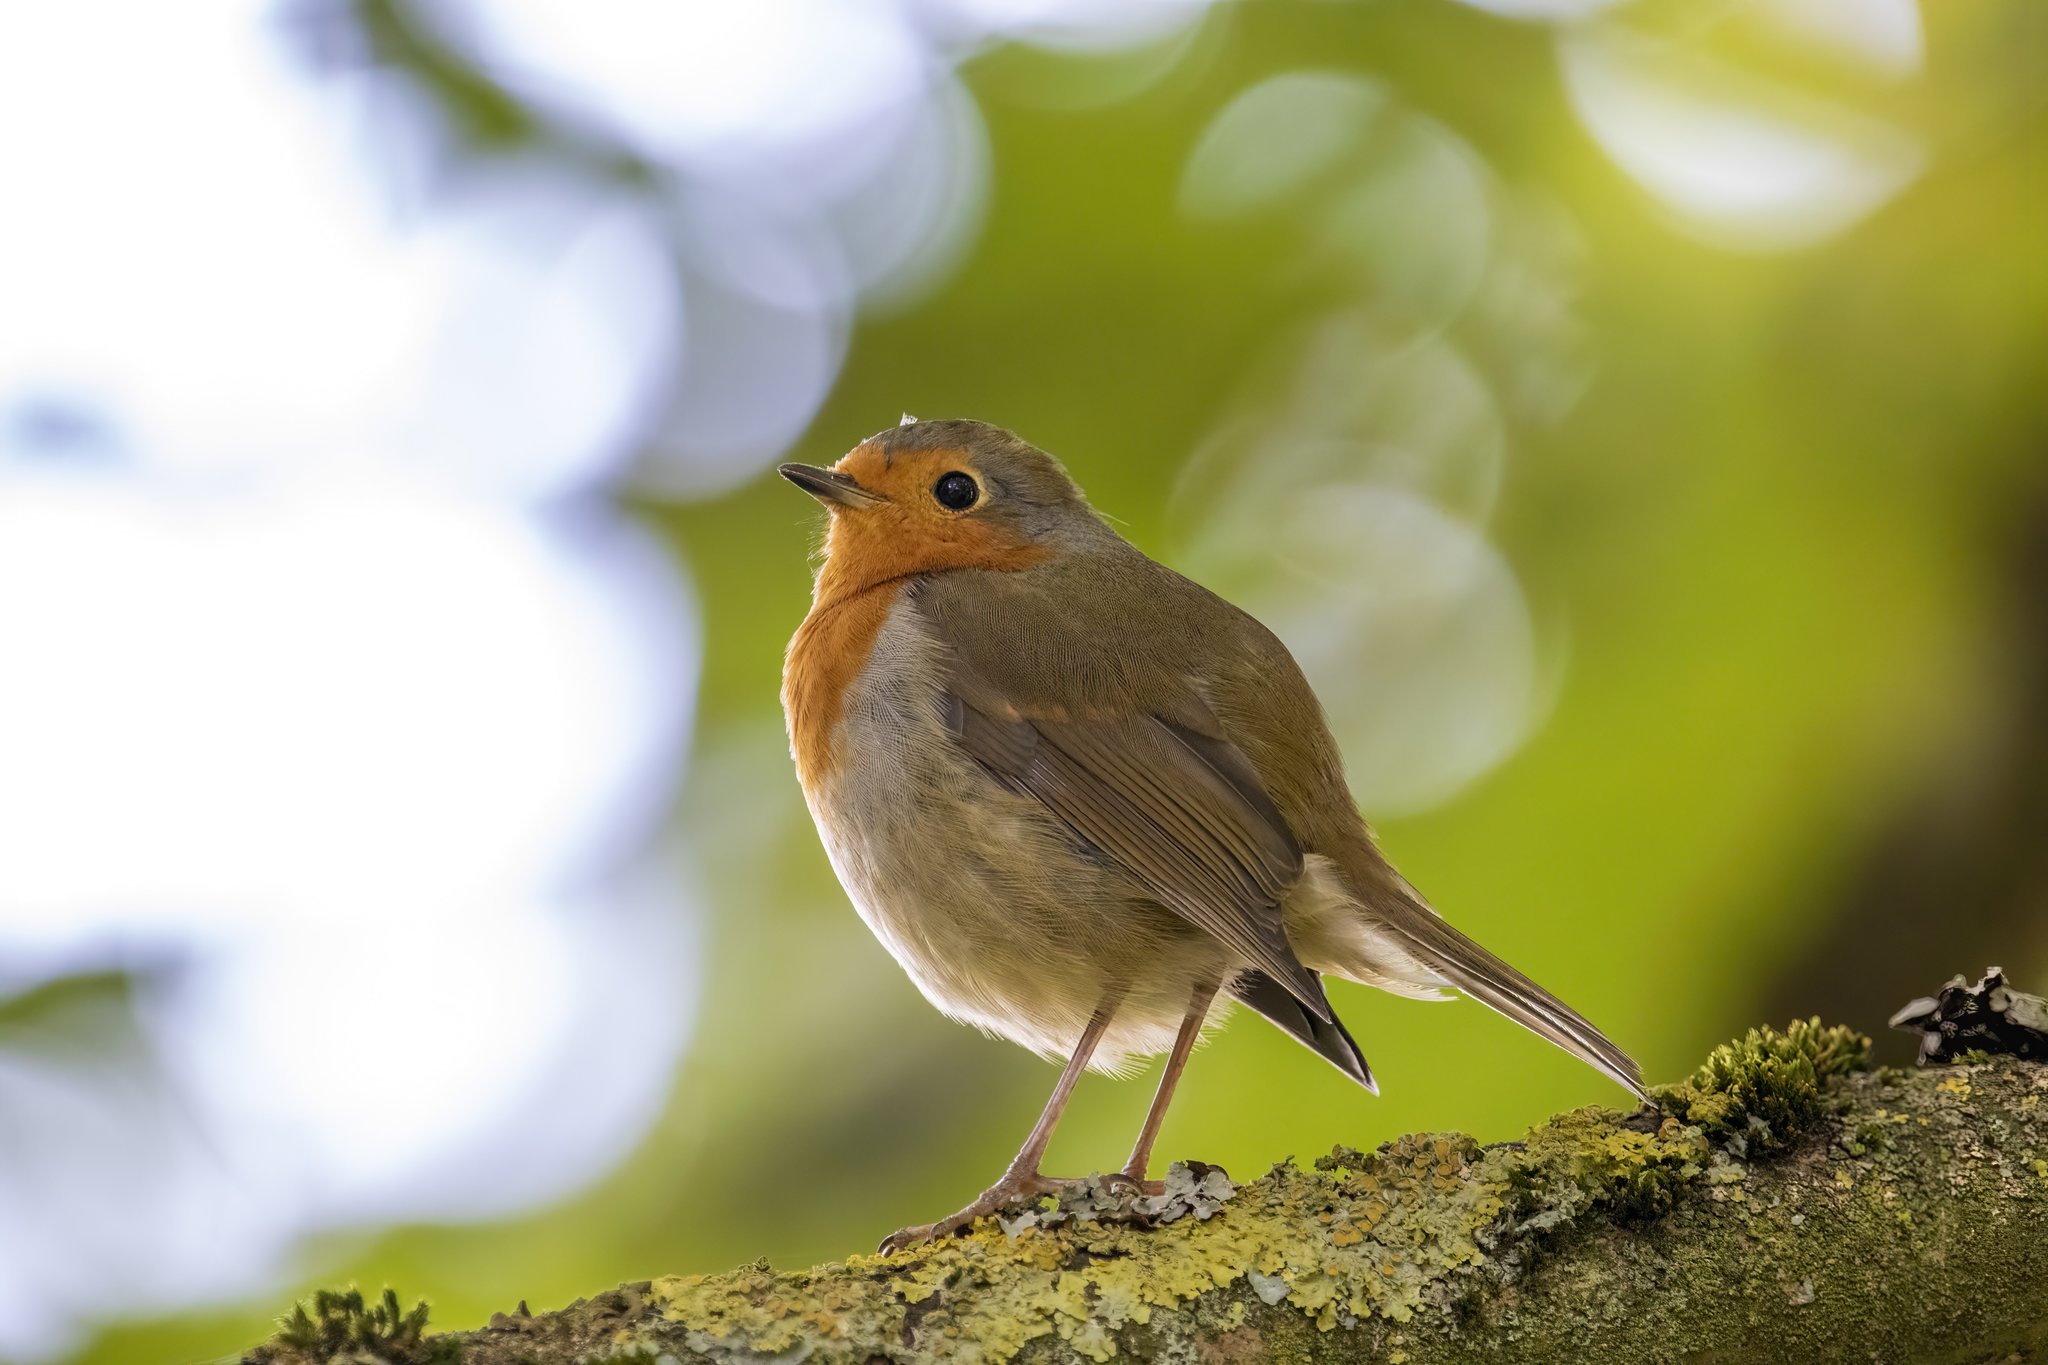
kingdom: Animalia
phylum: Chordata
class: Aves
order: Passeriformes
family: Muscicapidae
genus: Erithacus
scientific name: Erithacus rubecula
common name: European robin
